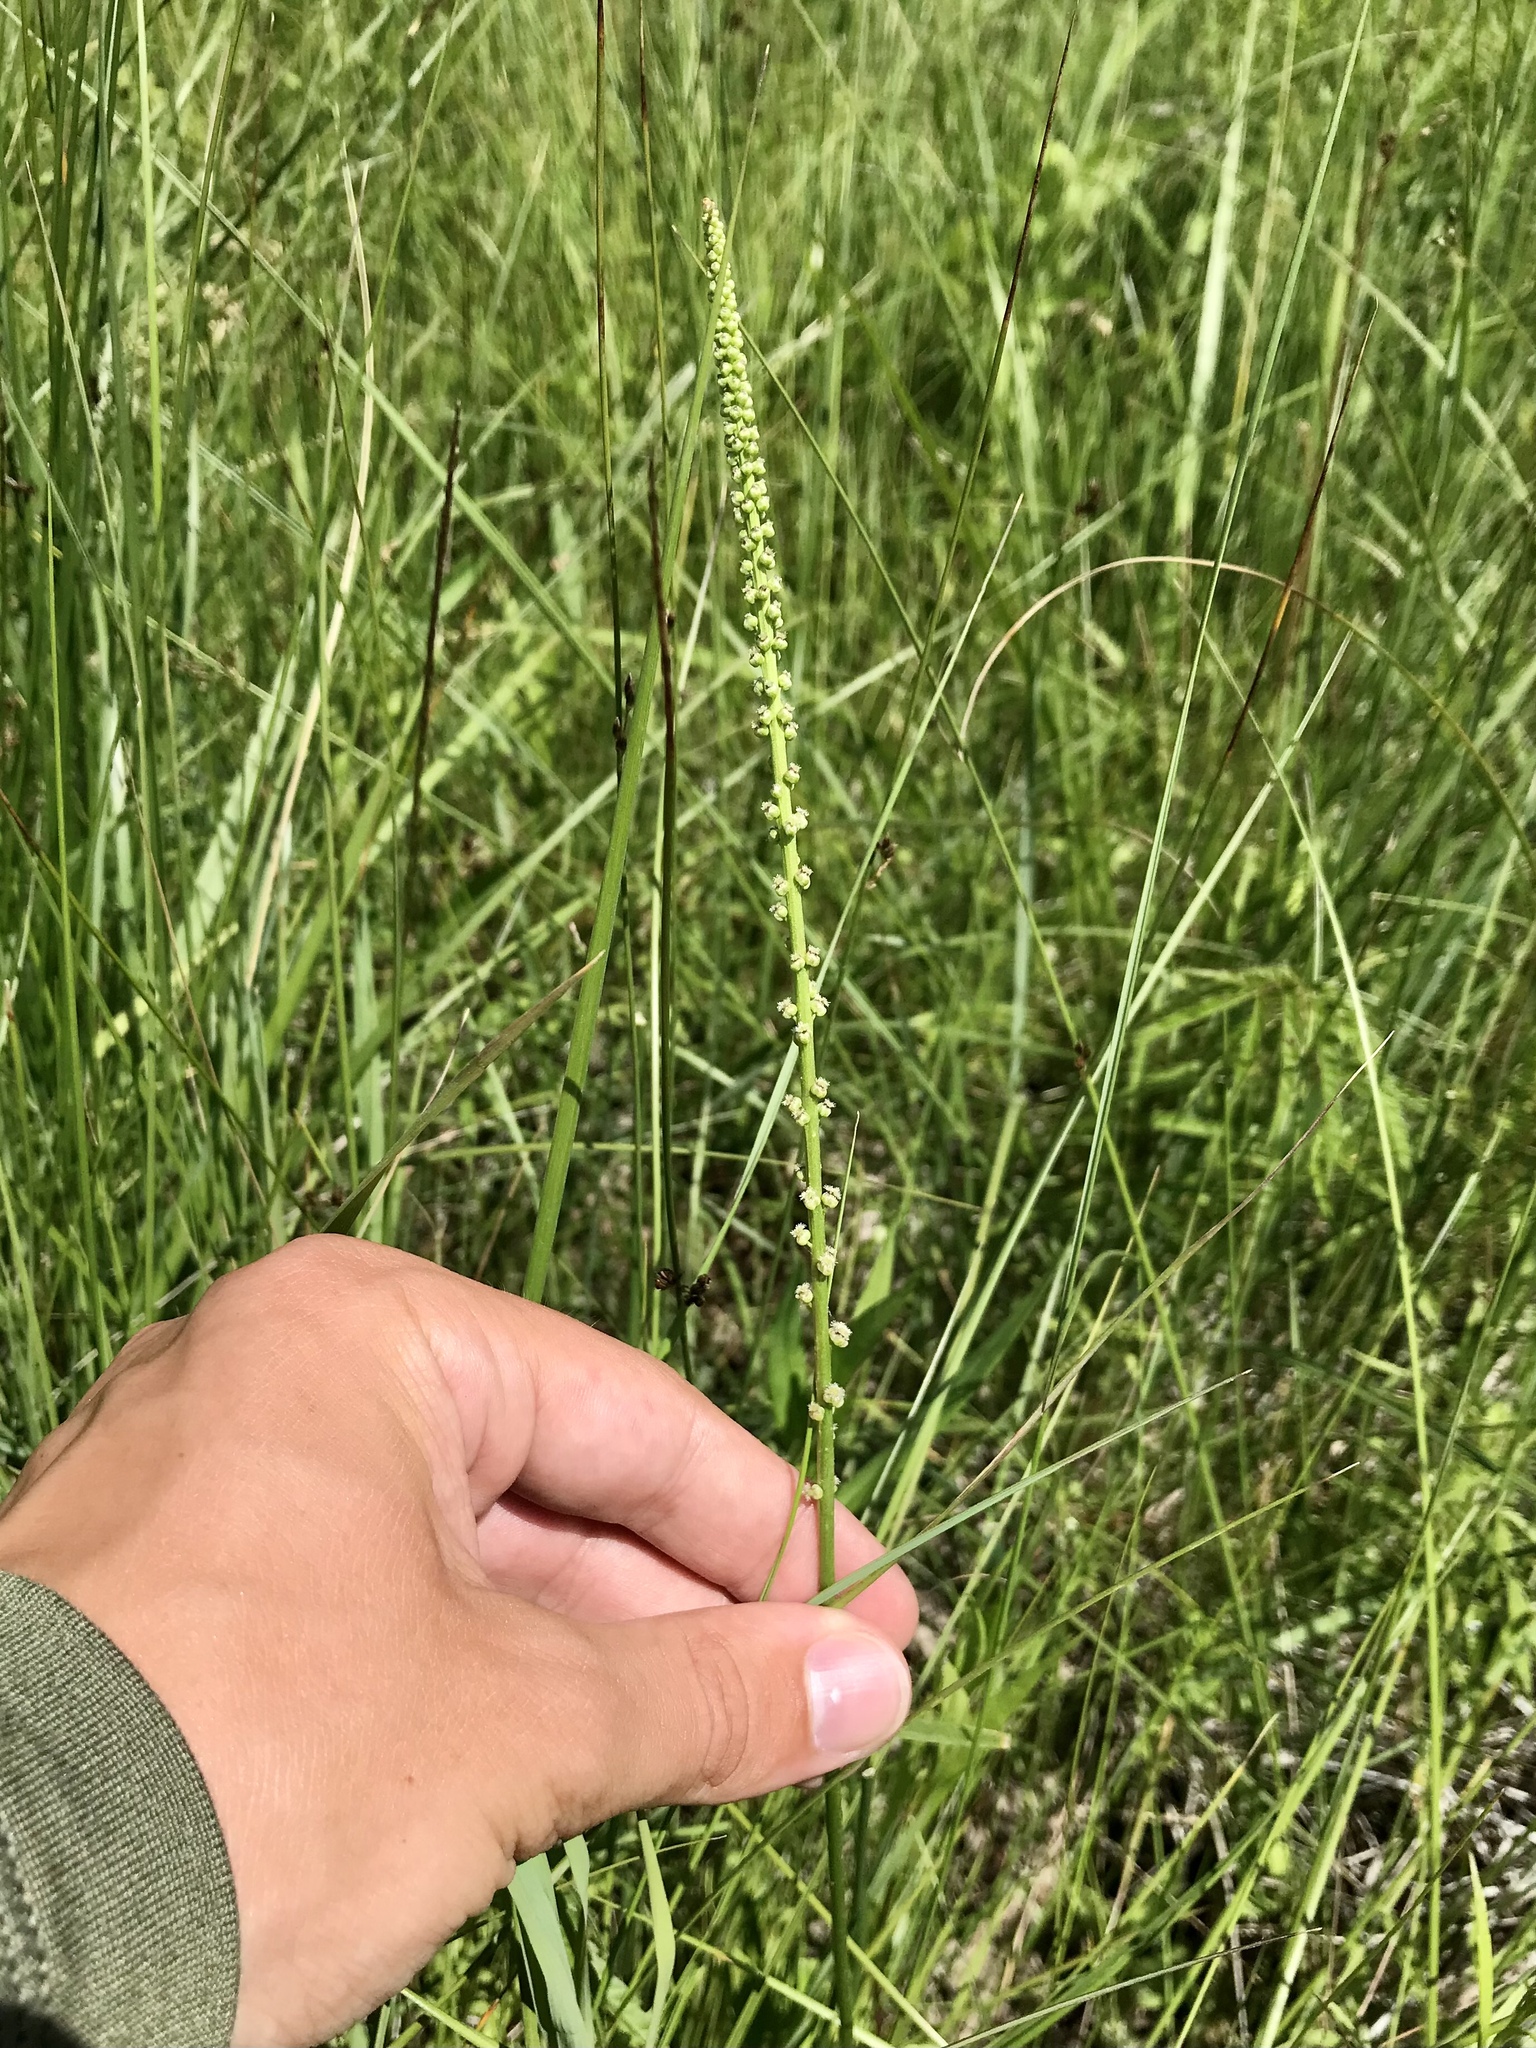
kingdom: Plantae
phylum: Tracheophyta
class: Liliopsida
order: Alismatales
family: Juncaginaceae
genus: Triglochin
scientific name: Triglochin maritima
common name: Sea arrowgrass
